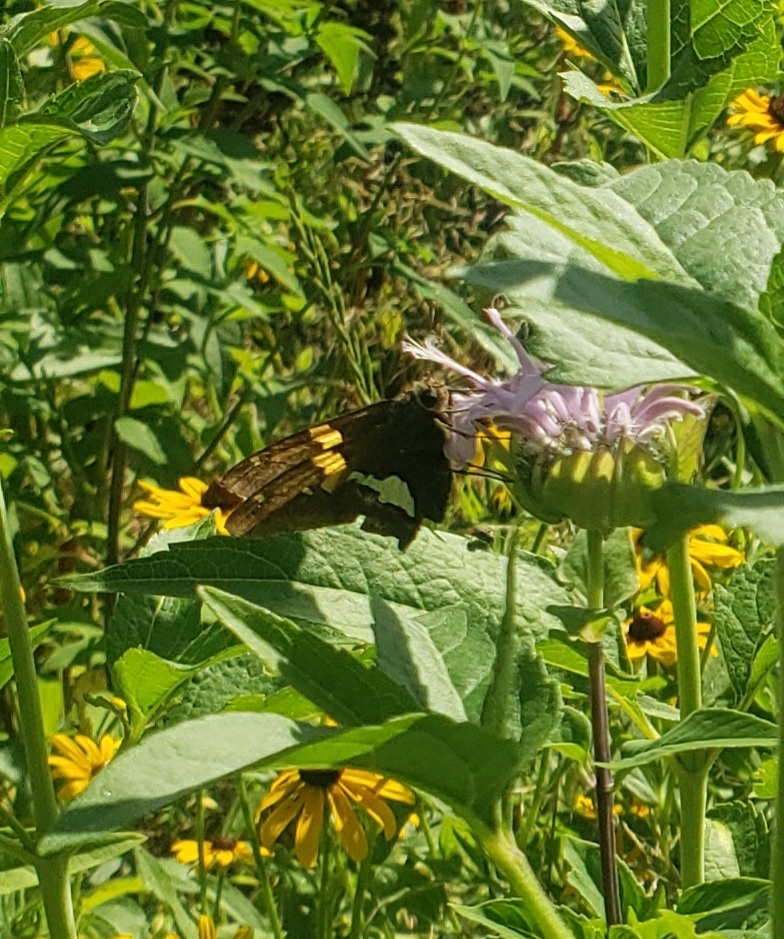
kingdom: Animalia
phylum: Arthropoda
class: Insecta
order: Lepidoptera
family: Hesperiidae
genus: Epargyreus
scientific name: Epargyreus clarus
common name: Silver-spotted skipper
